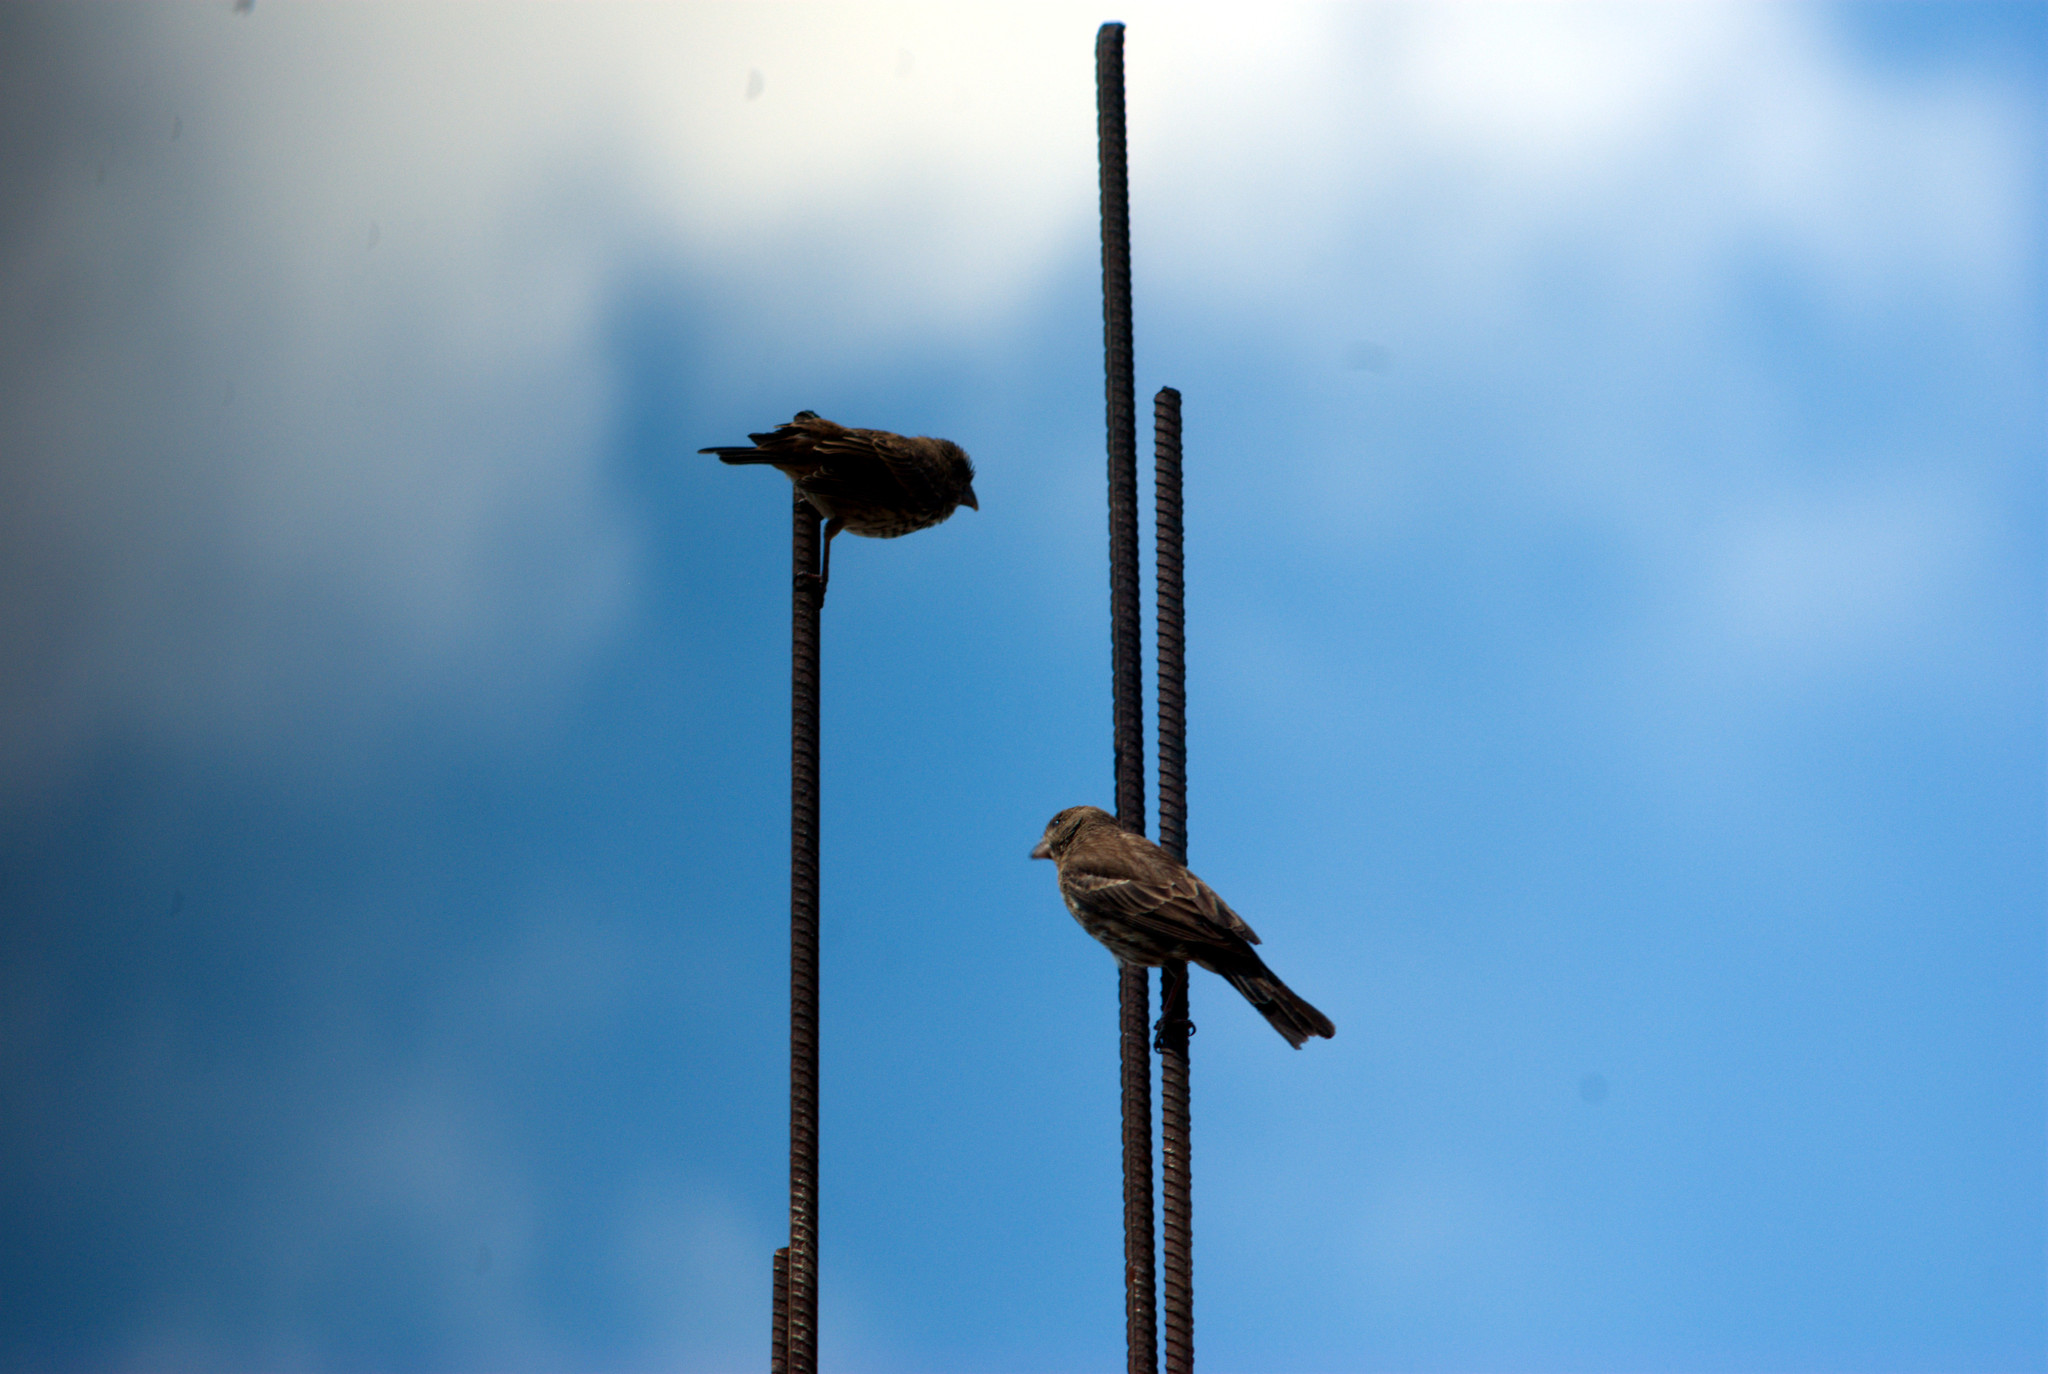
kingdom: Animalia
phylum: Chordata
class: Aves
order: Passeriformes
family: Fringillidae
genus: Haemorhous
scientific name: Haemorhous mexicanus
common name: House finch
